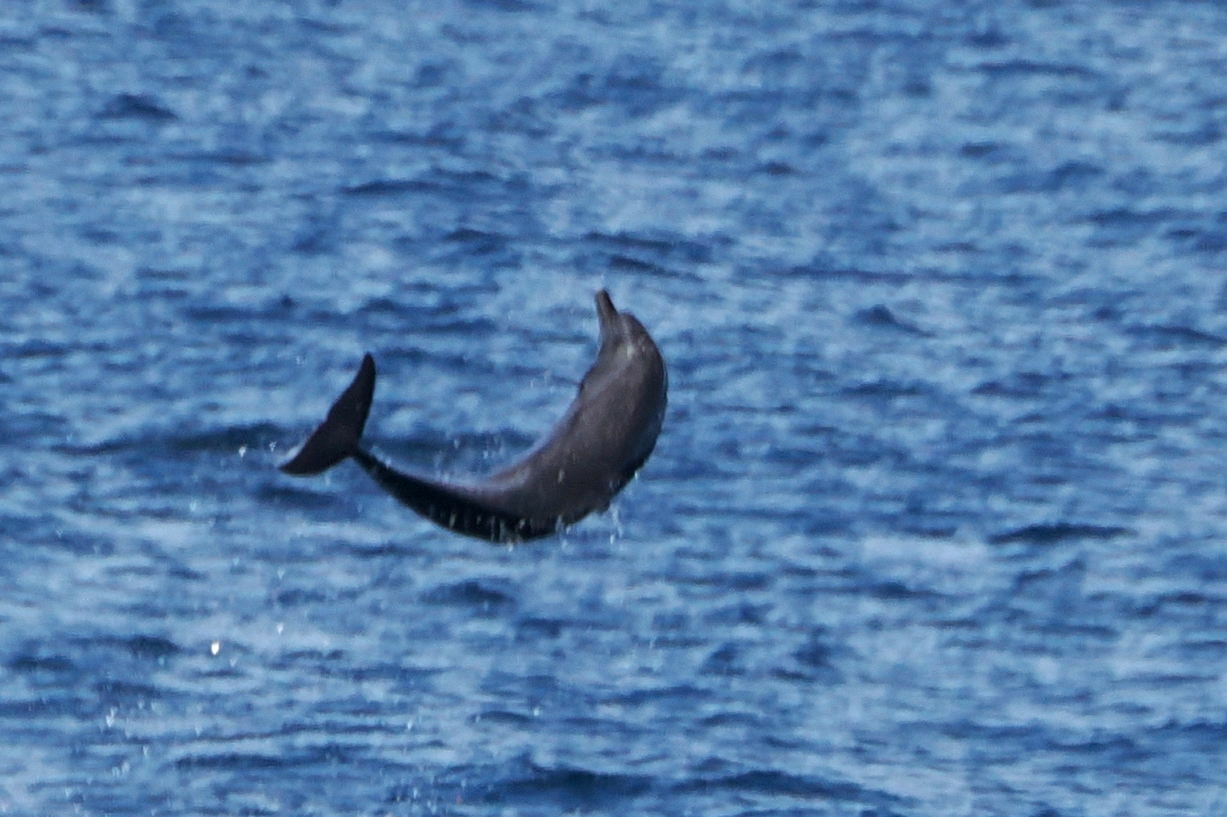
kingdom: Animalia
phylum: Chordata
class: Mammalia
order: Cetacea
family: Delphinidae
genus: Stenella
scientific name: Stenella attenuata
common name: Pantropical spotted dolphin
